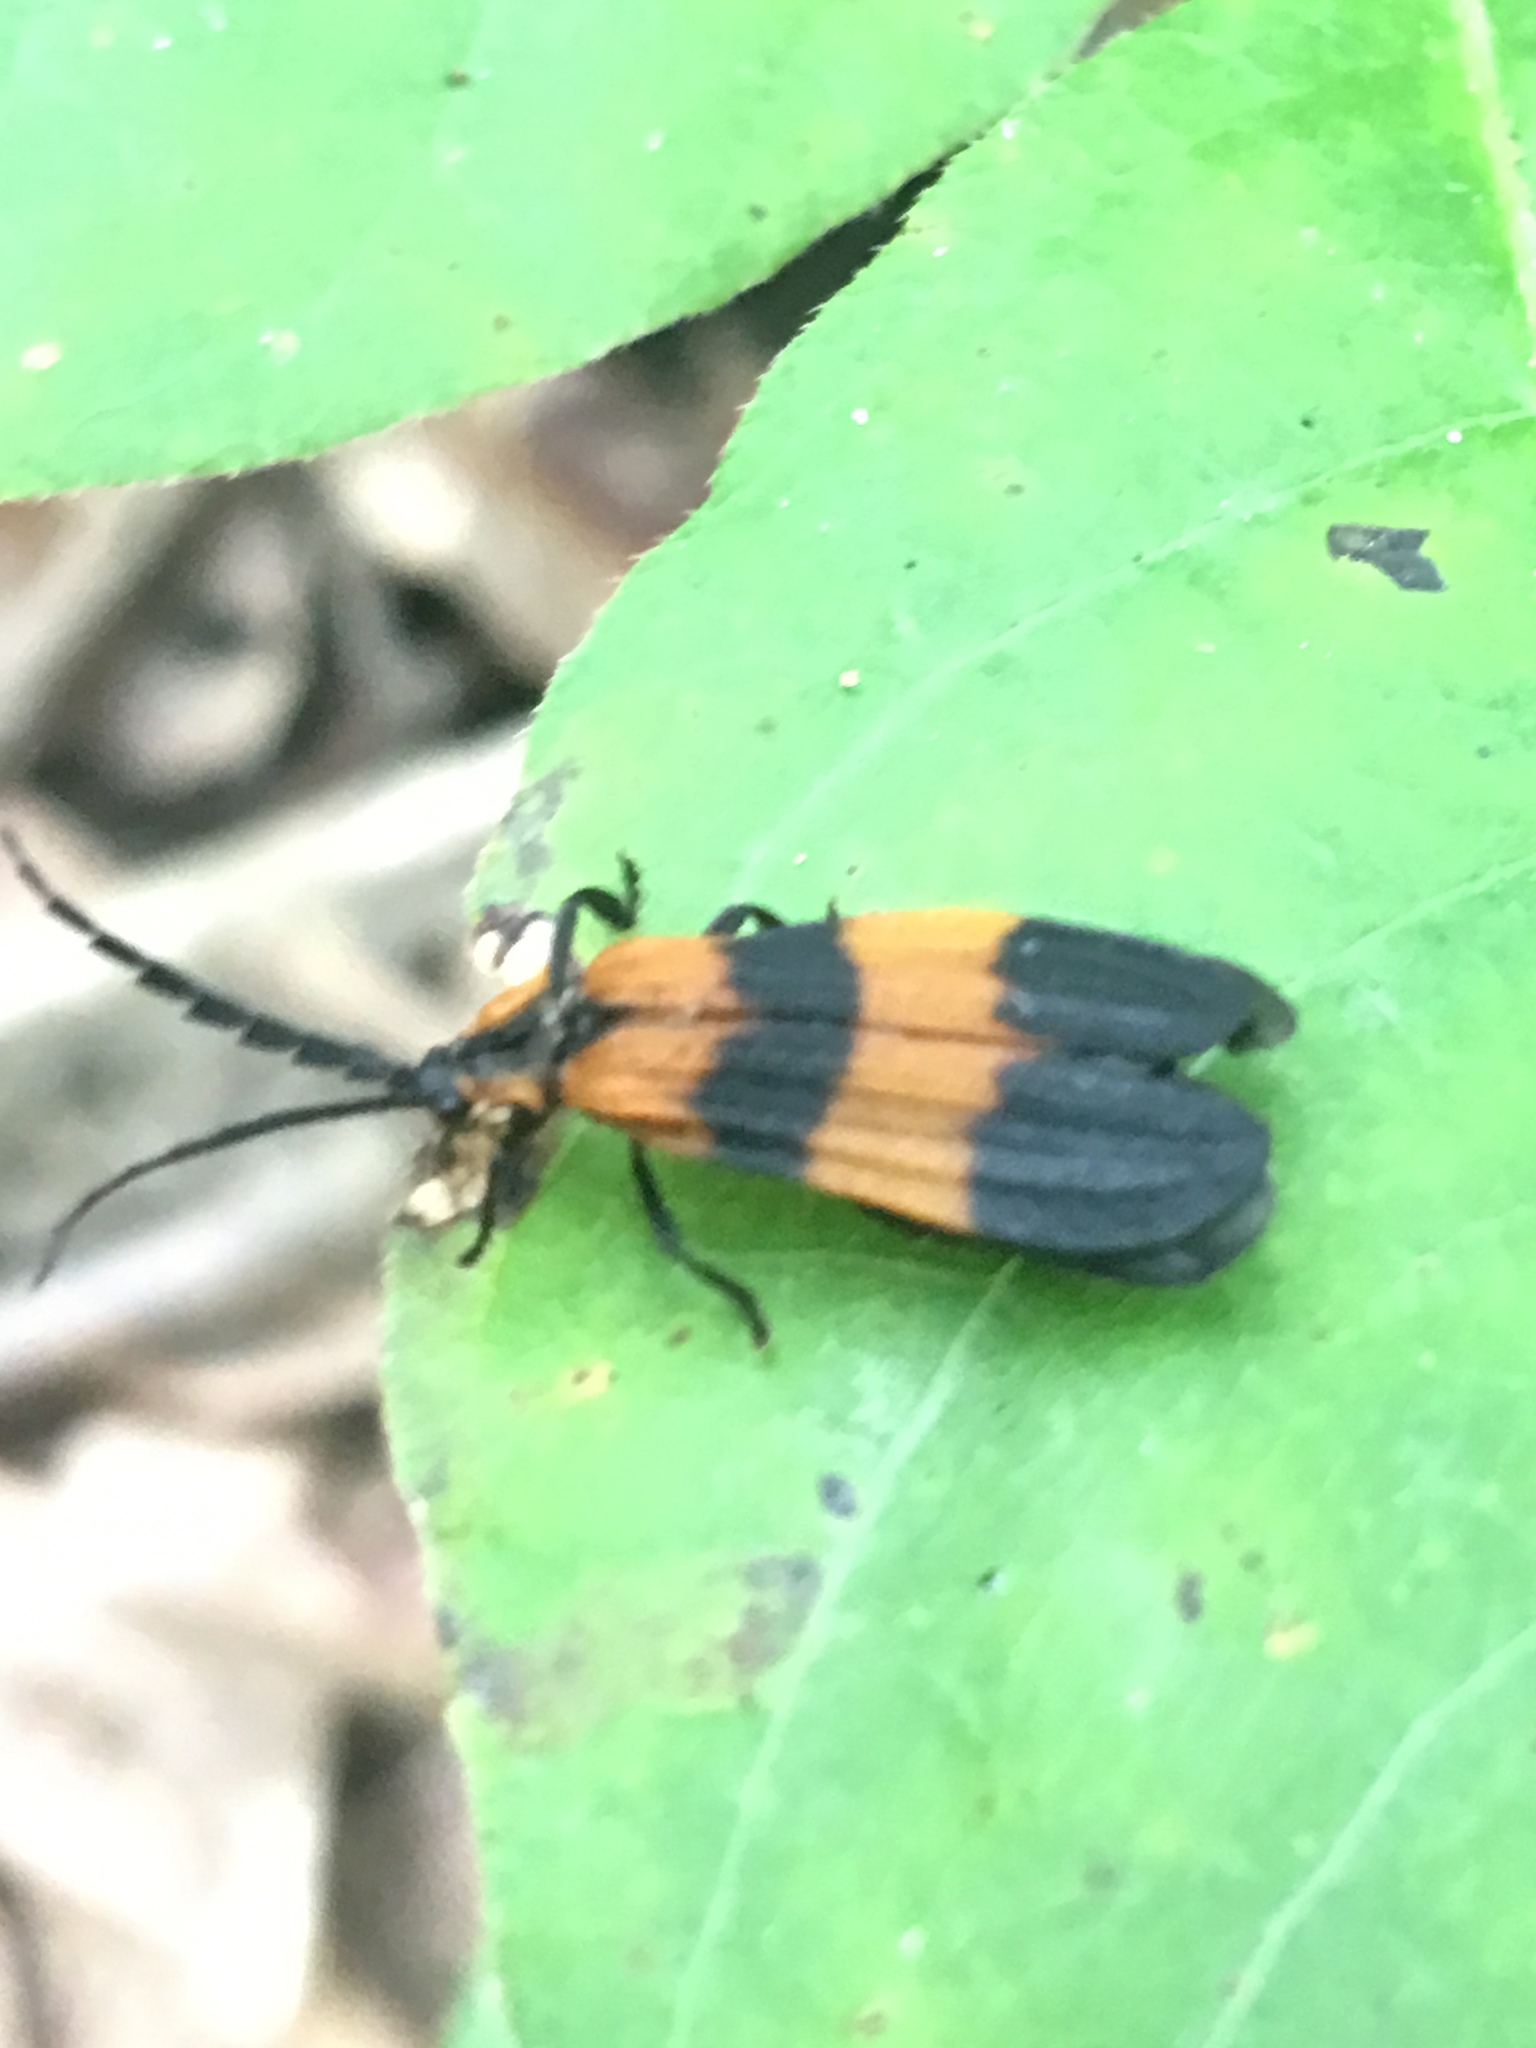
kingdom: Animalia
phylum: Arthropoda
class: Insecta
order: Coleoptera
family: Lycidae
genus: Calopteron
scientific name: Calopteron discrepans
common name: Banded net-winged beetle
